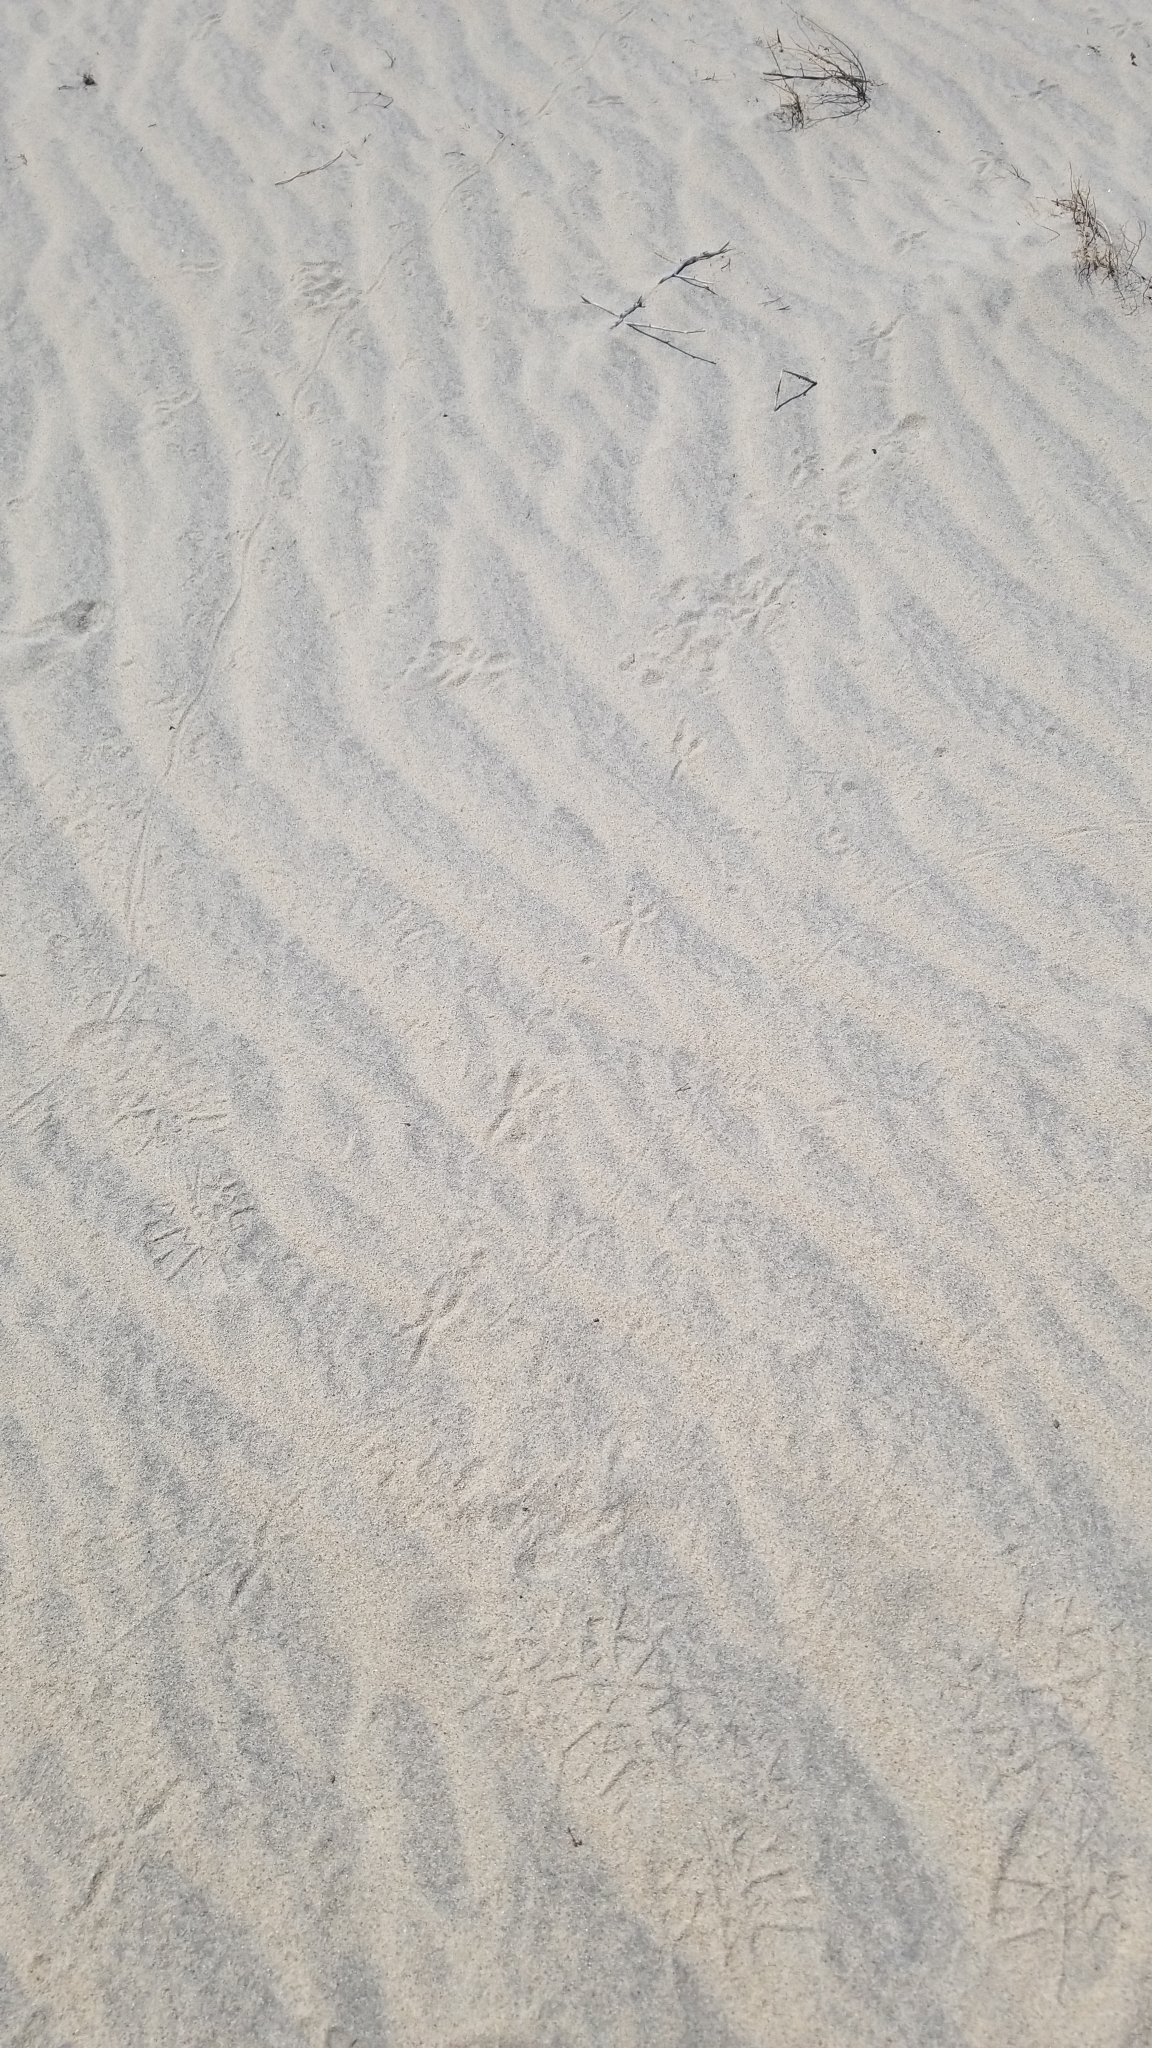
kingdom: Animalia
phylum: Chordata
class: Aves
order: Cuculiformes
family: Cuculidae
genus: Geococcyx
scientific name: Geococcyx californianus
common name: Greater roadrunner
